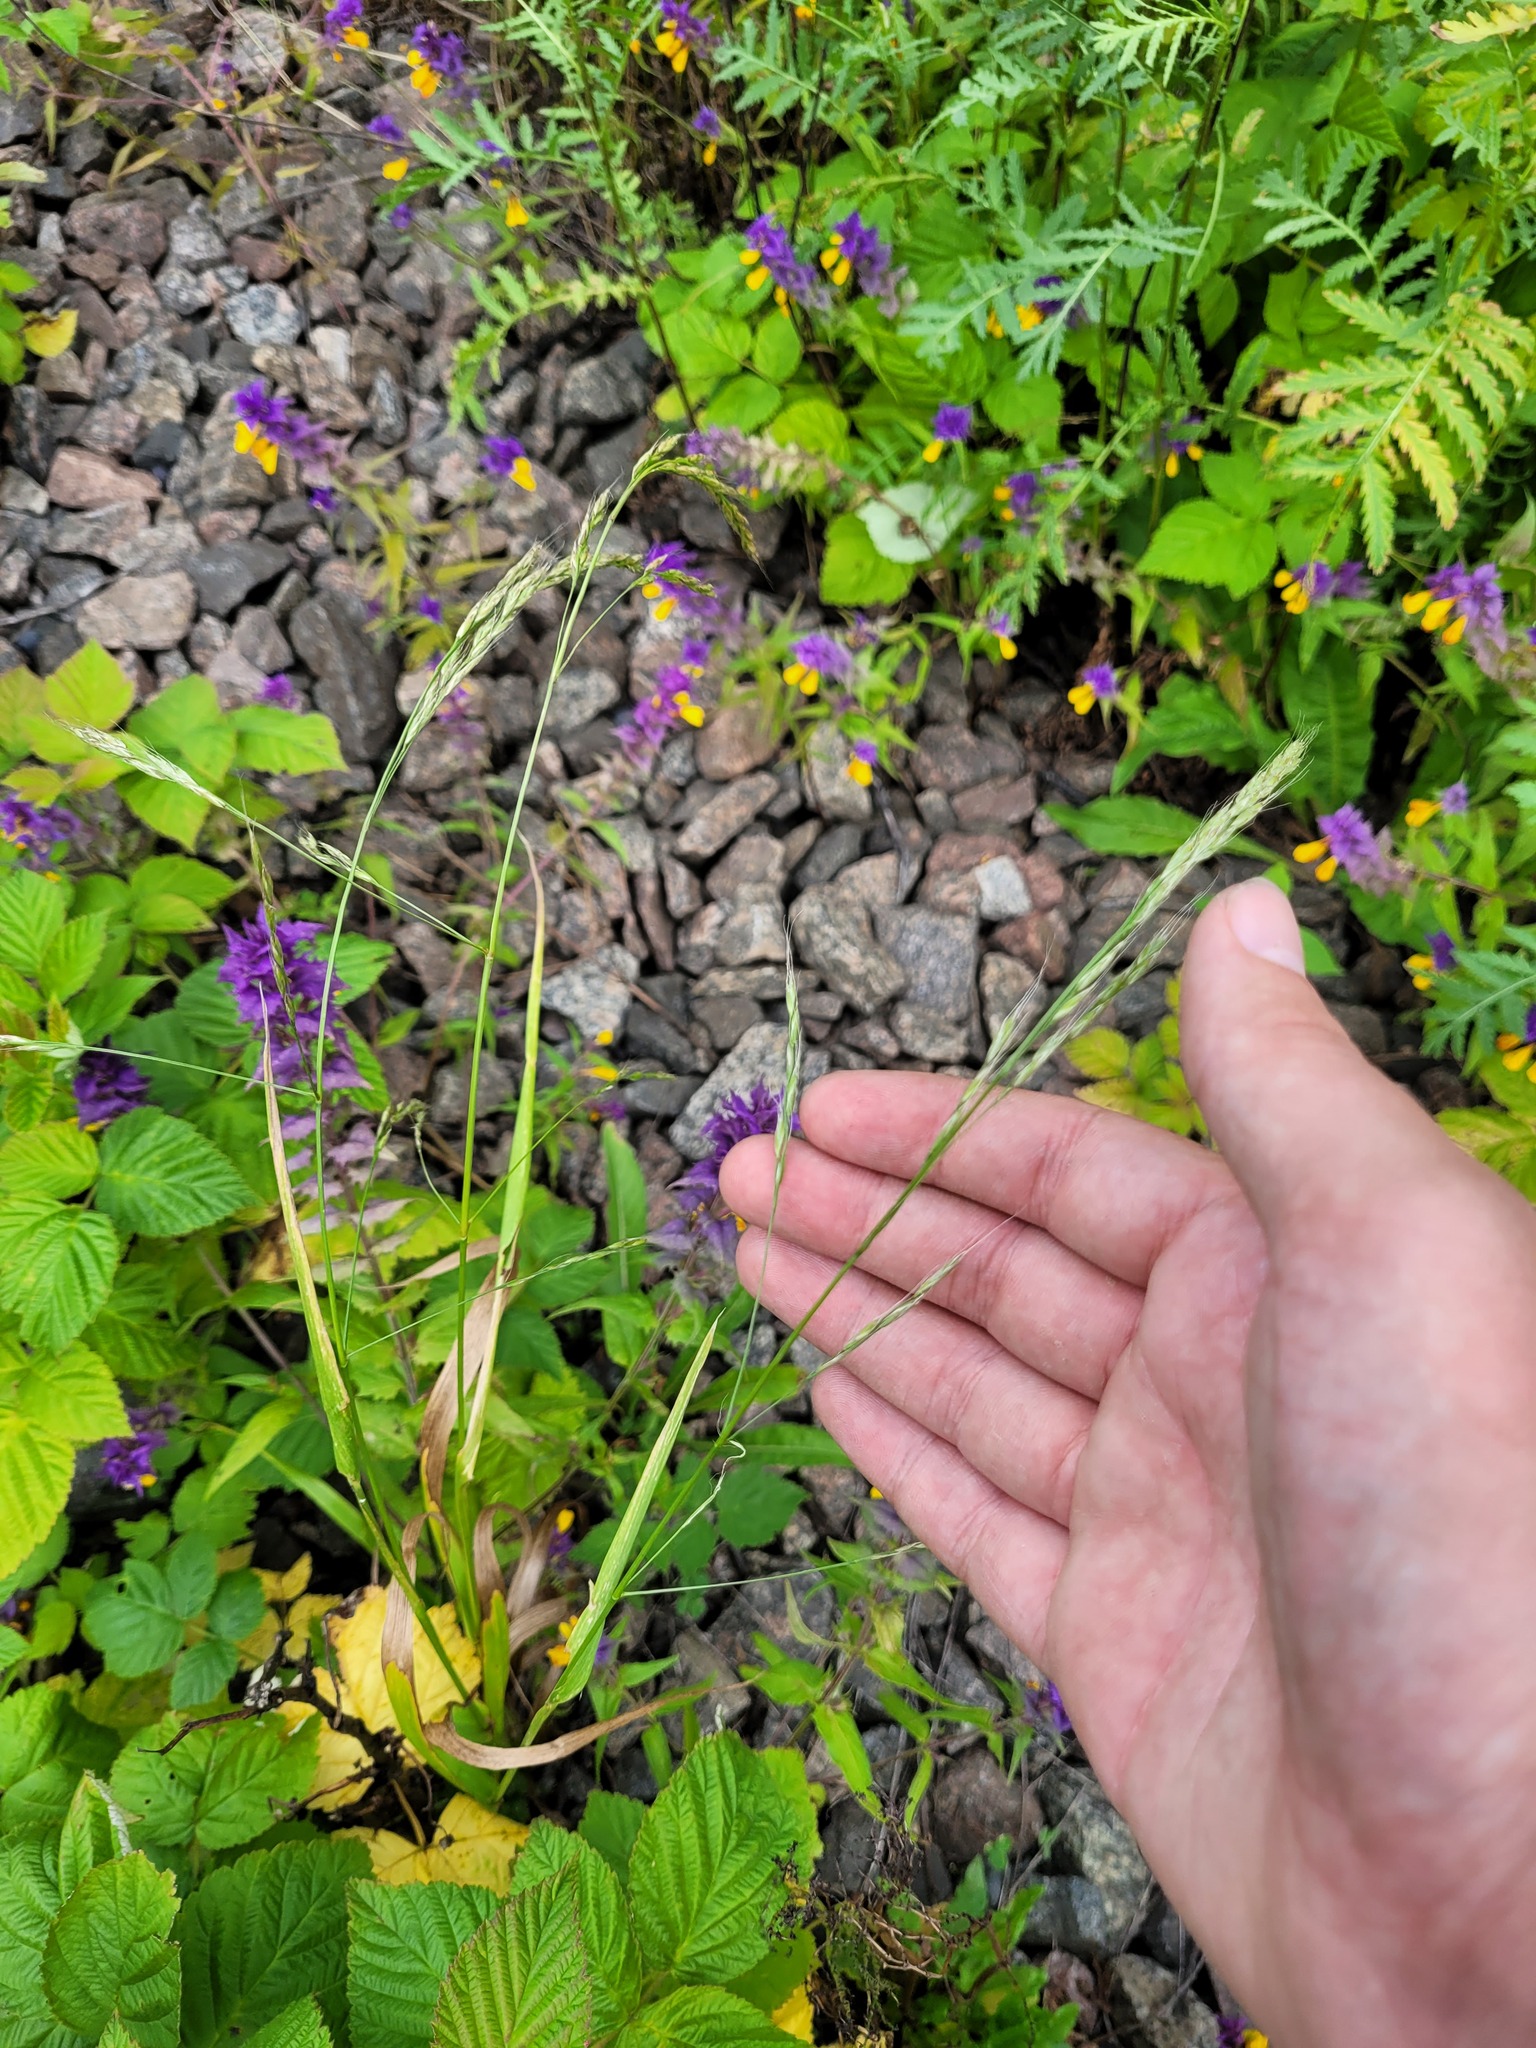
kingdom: Plantae
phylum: Tracheophyta
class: Liliopsida
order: Poales
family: Poaceae
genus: Lolium
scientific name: Lolium giganteum
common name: Giant fescue
